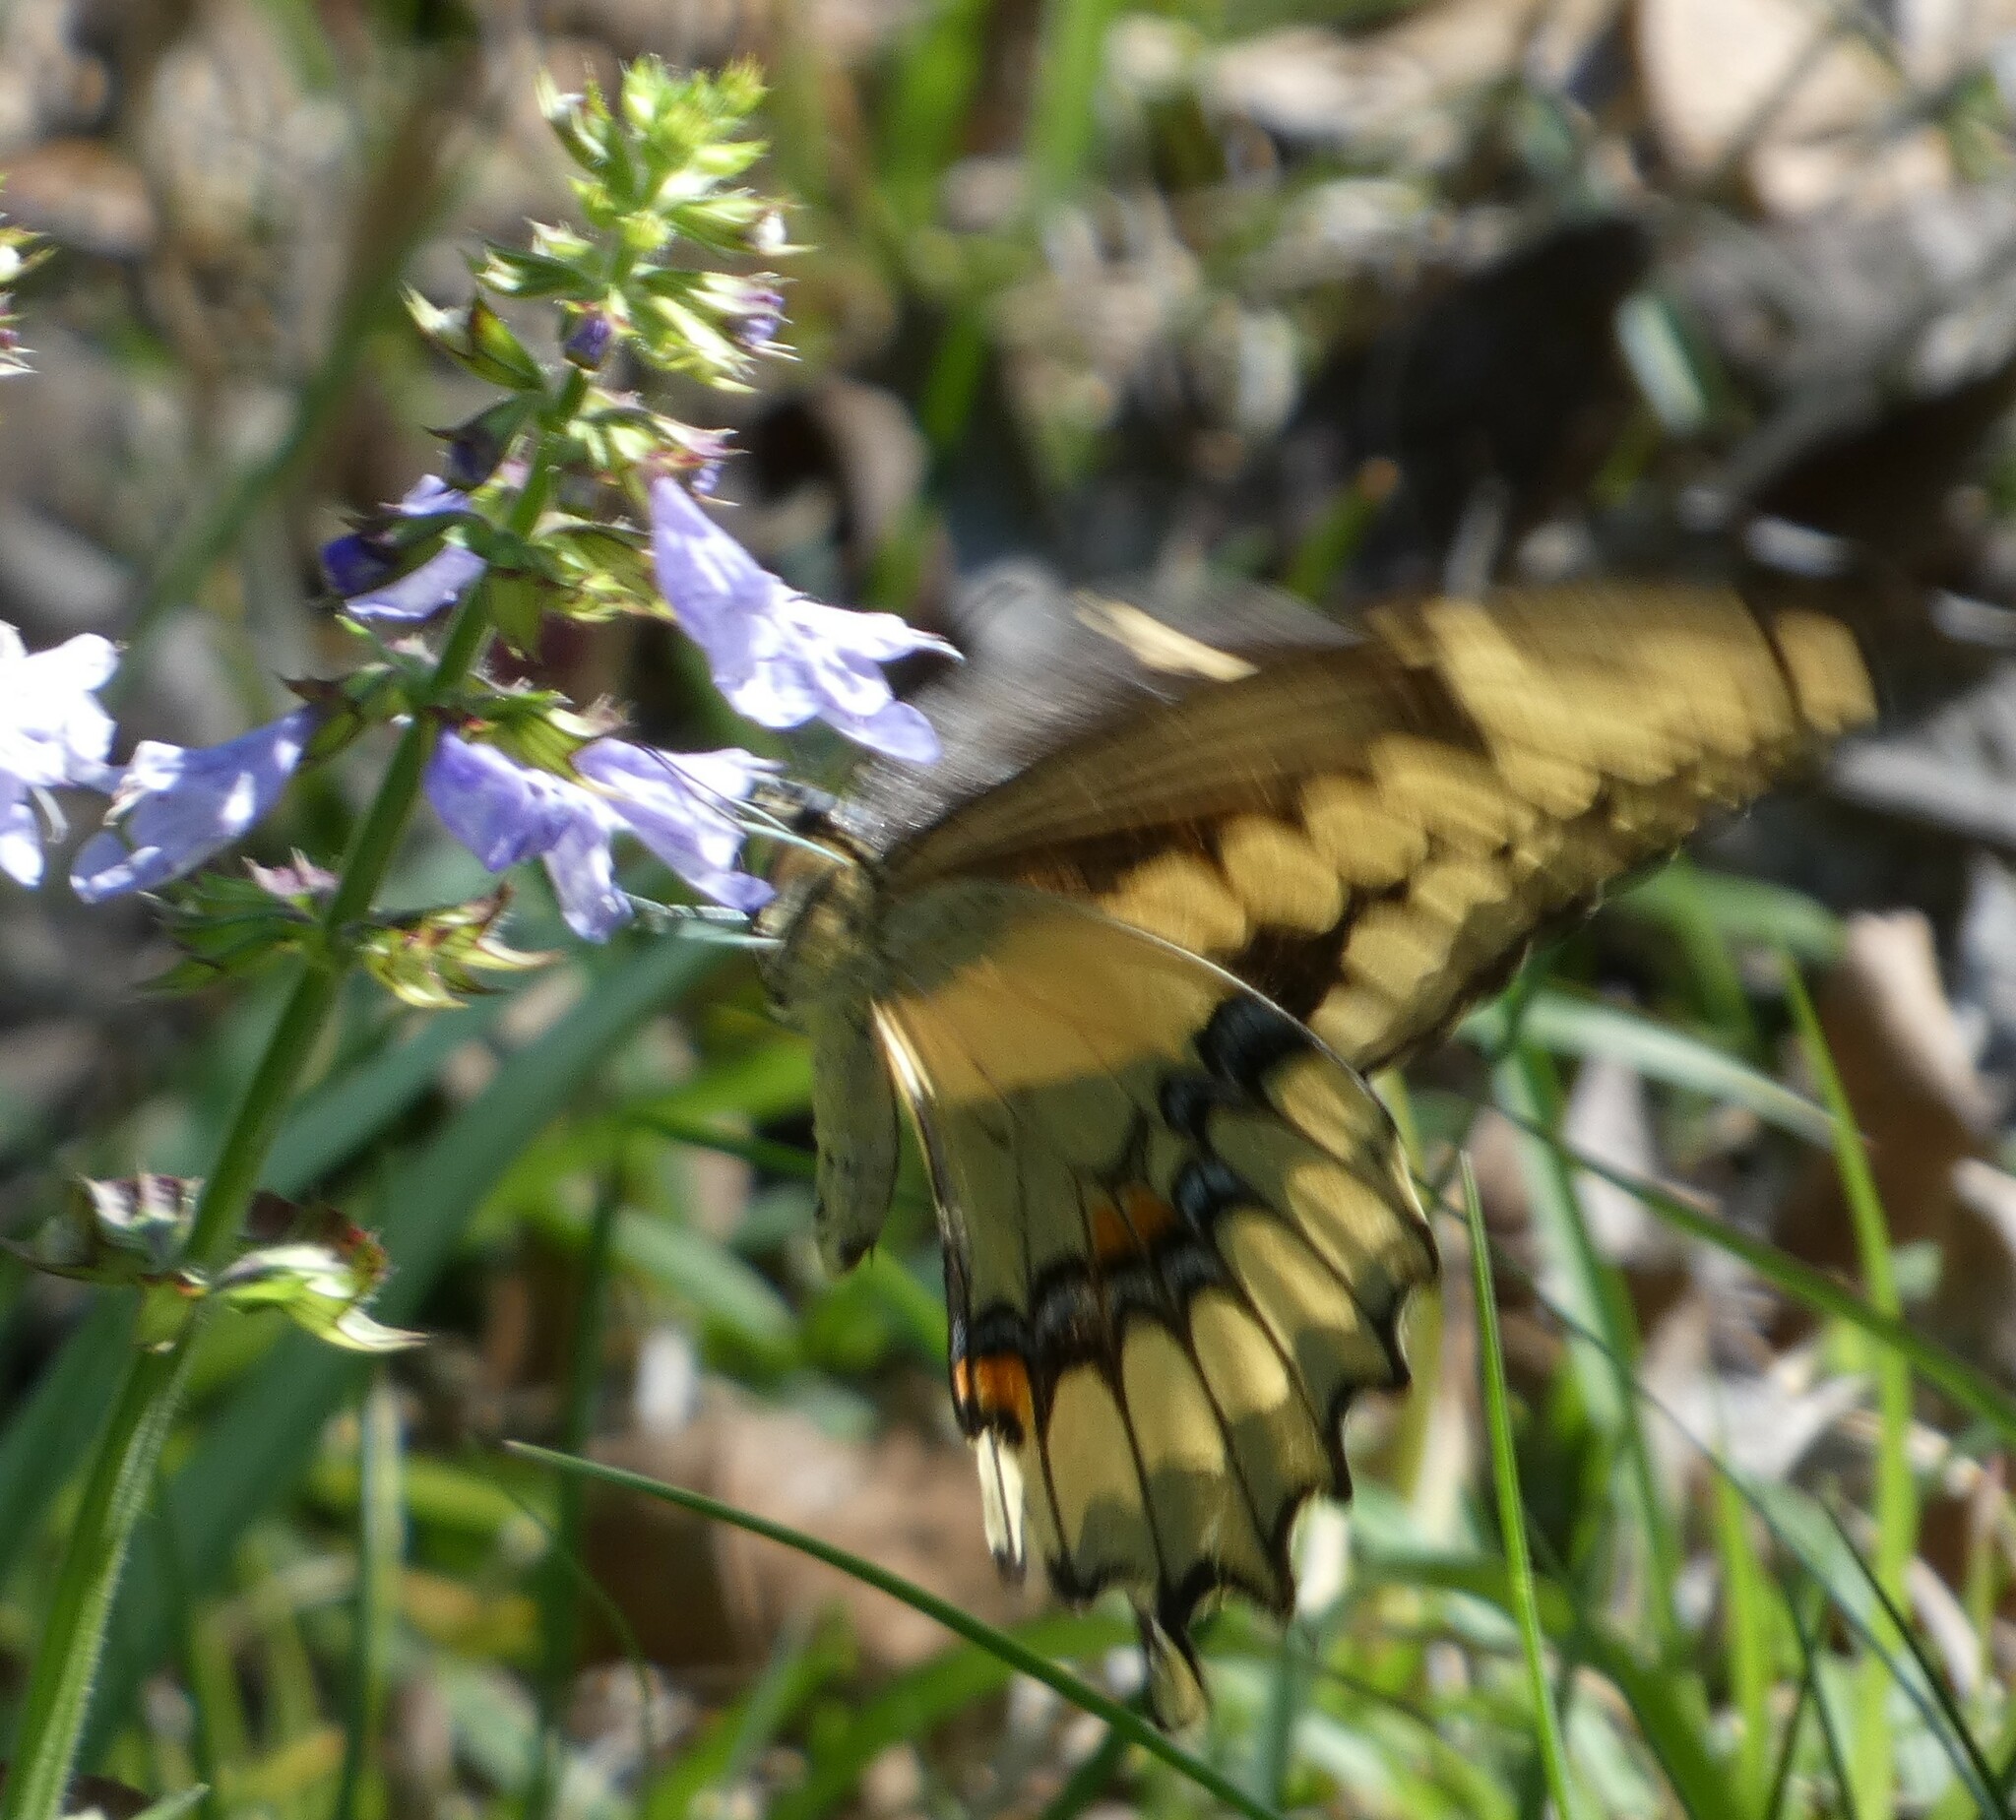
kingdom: Animalia
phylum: Arthropoda
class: Insecta
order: Lepidoptera
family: Papilionidae
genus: Papilio
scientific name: Papilio cresphontes
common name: Giant swallowtail
